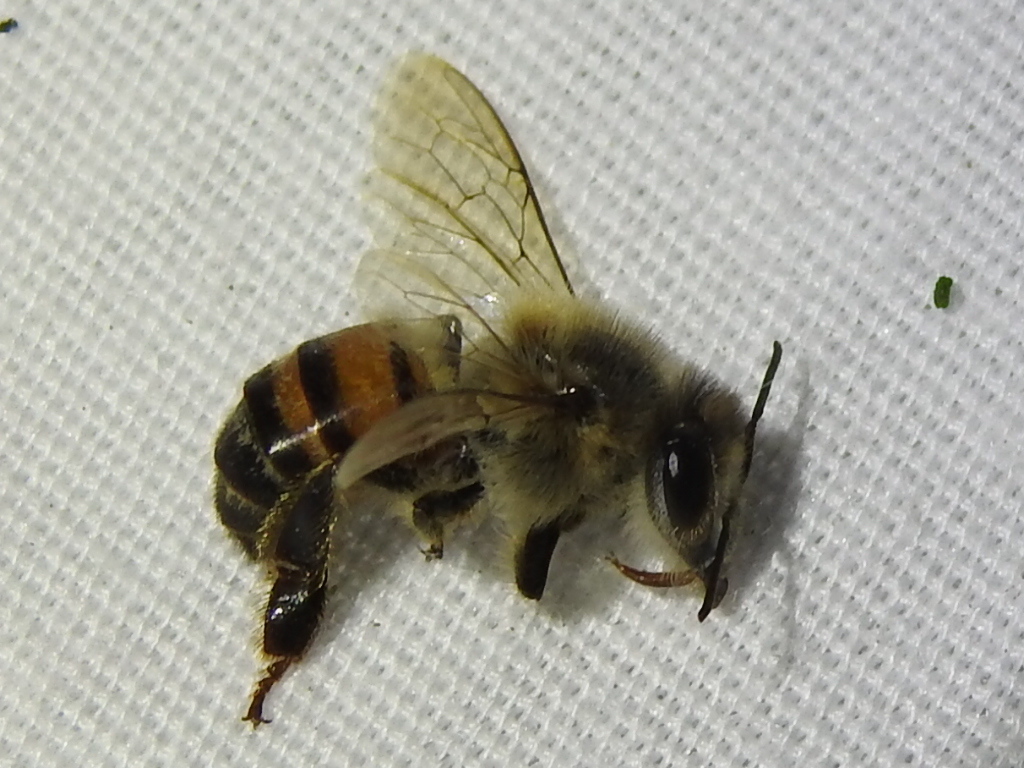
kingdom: Animalia
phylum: Arthropoda
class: Insecta
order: Hymenoptera
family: Apidae
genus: Apis
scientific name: Apis mellifera
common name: Honey bee
